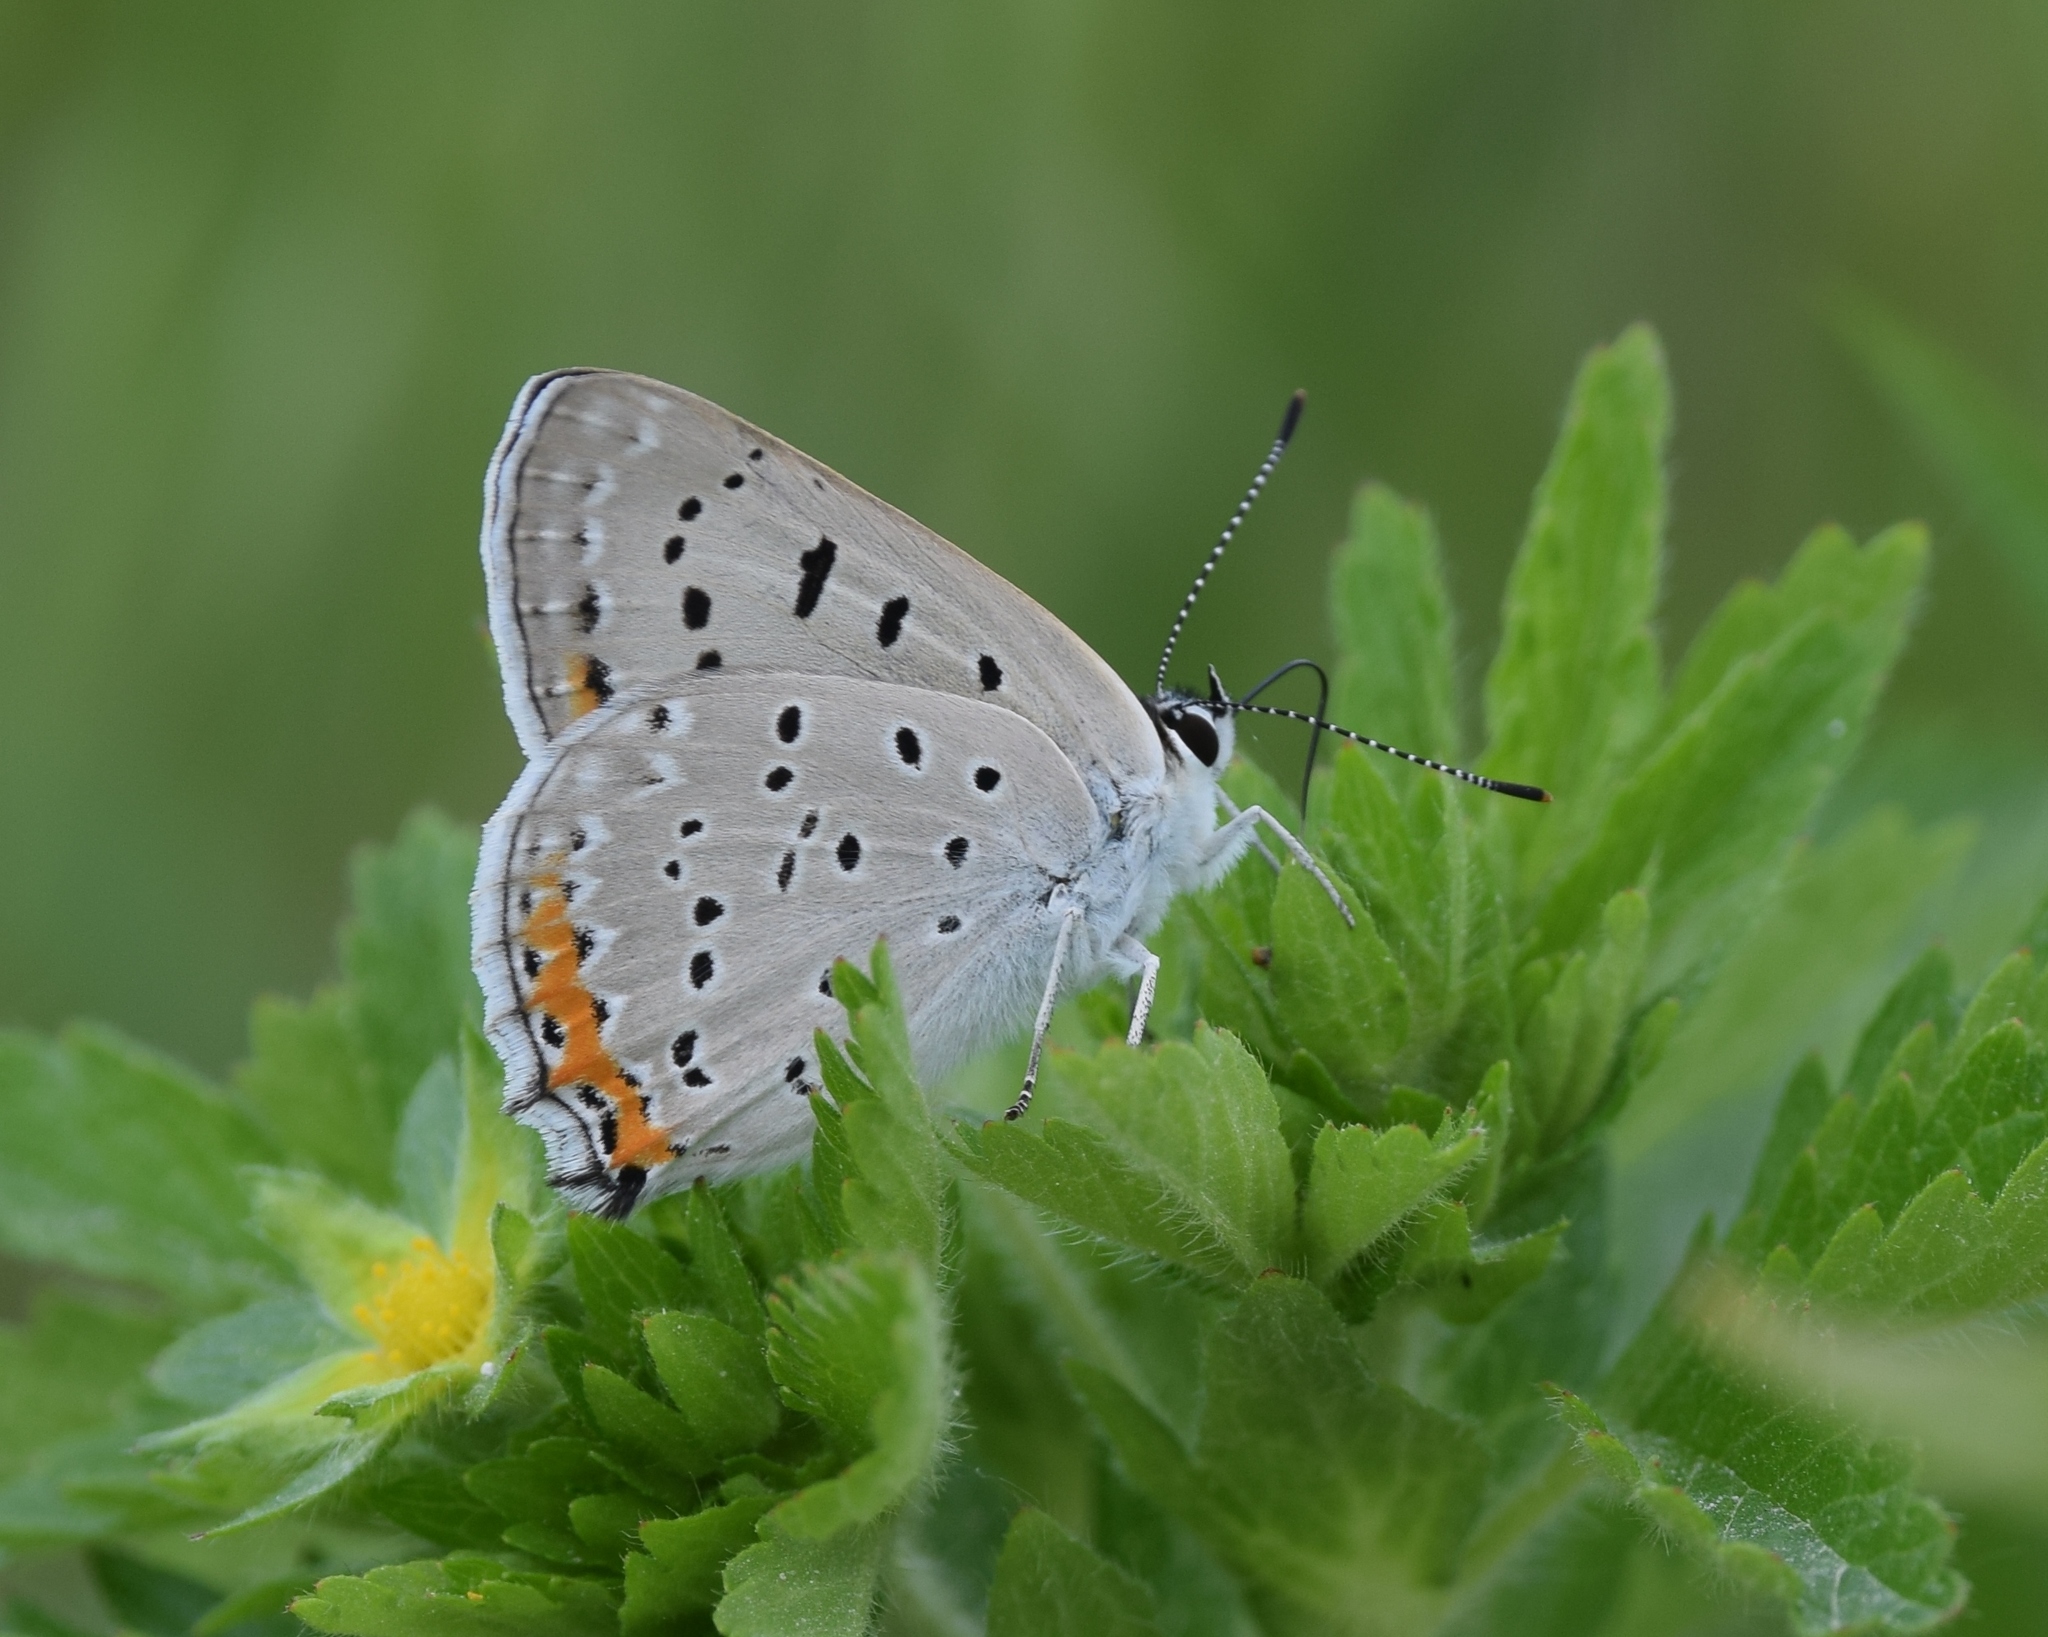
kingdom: Animalia
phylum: Arthropoda
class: Insecta
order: Lepidoptera
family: Lycaenidae
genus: Tharsalea
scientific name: Tharsalea dione
